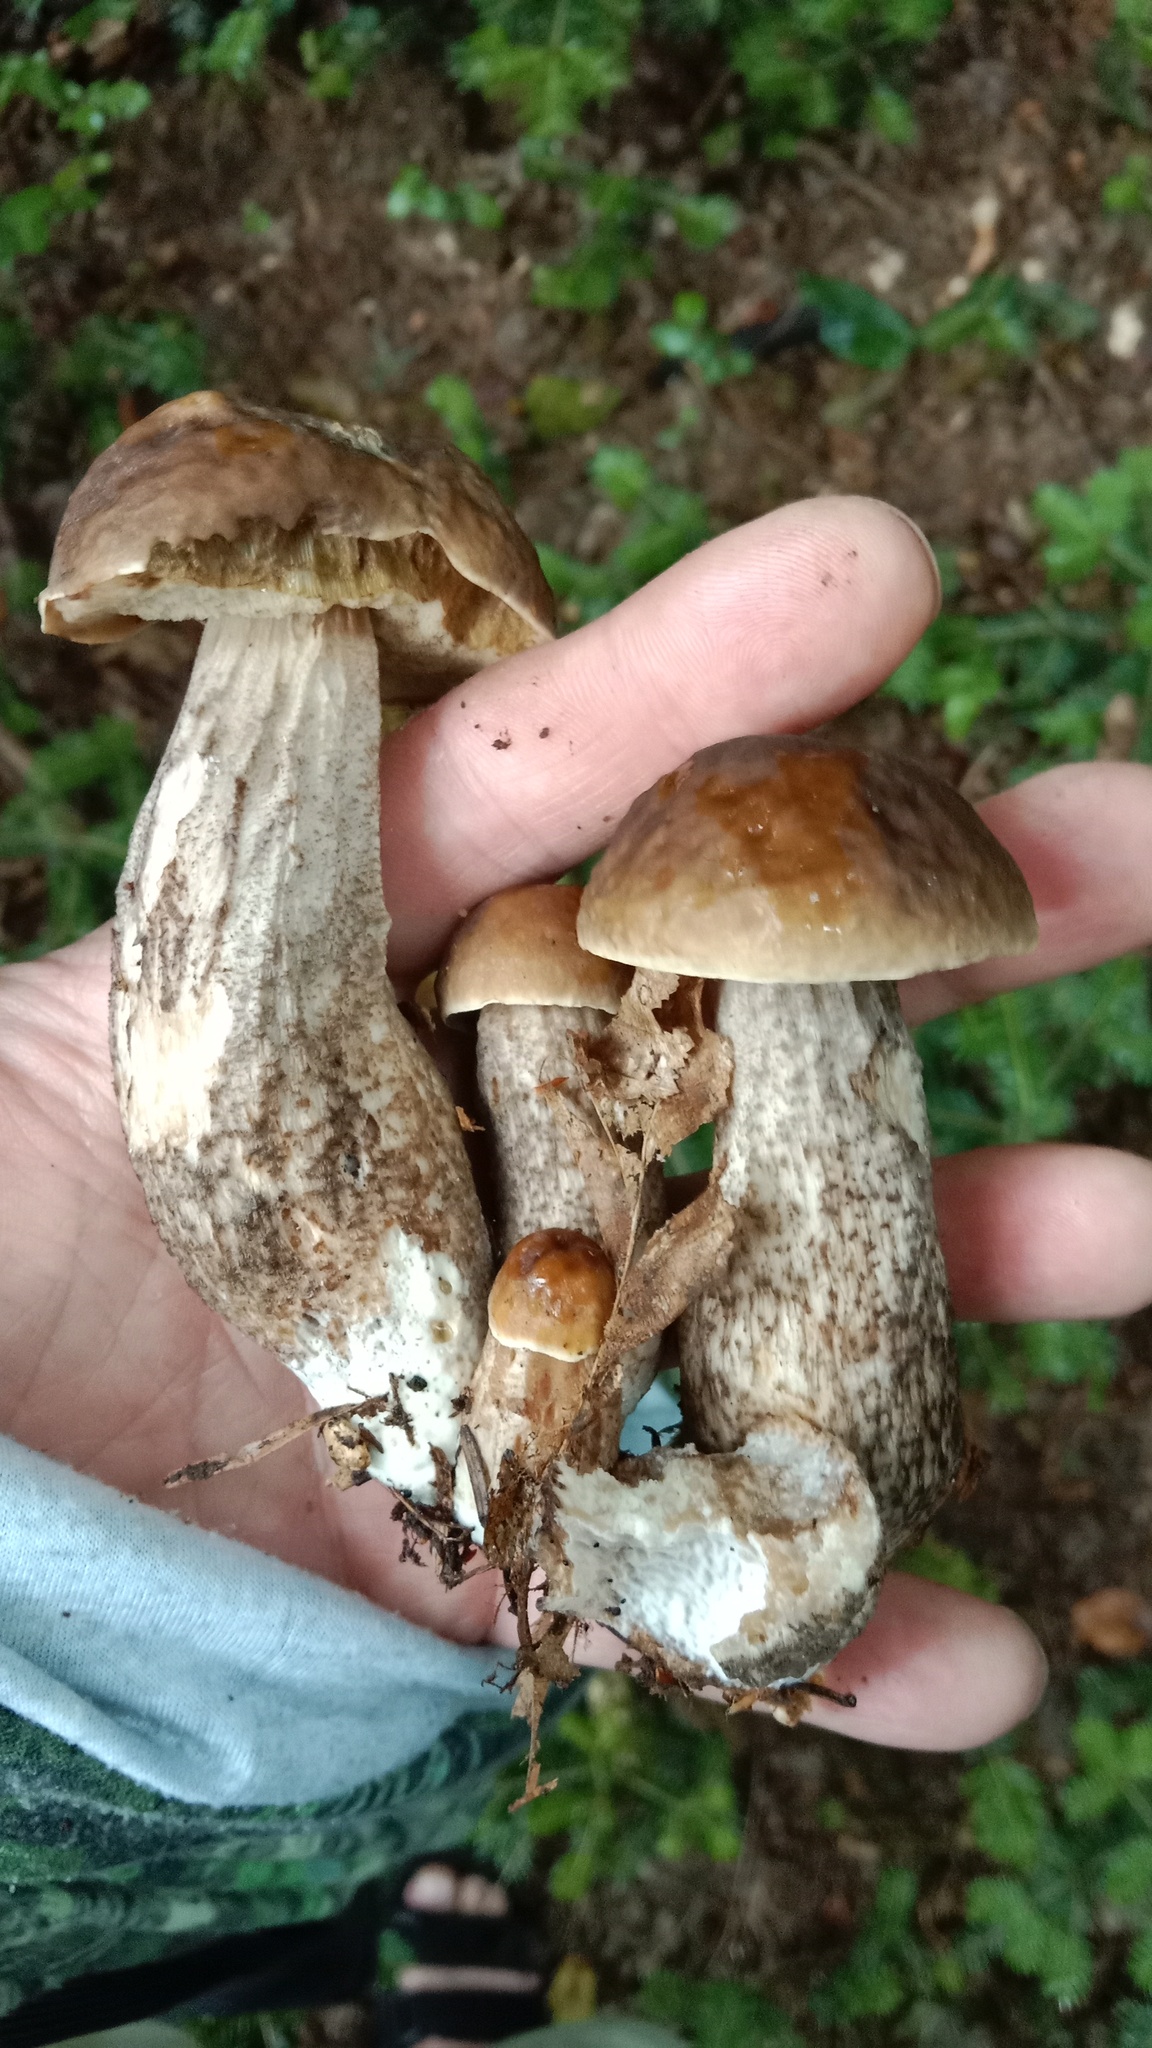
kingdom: Fungi
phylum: Basidiomycota
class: Agaricomycetes
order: Boletales
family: Boletaceae
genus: Leccinellum
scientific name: Leccinellum pseudoscabrum
